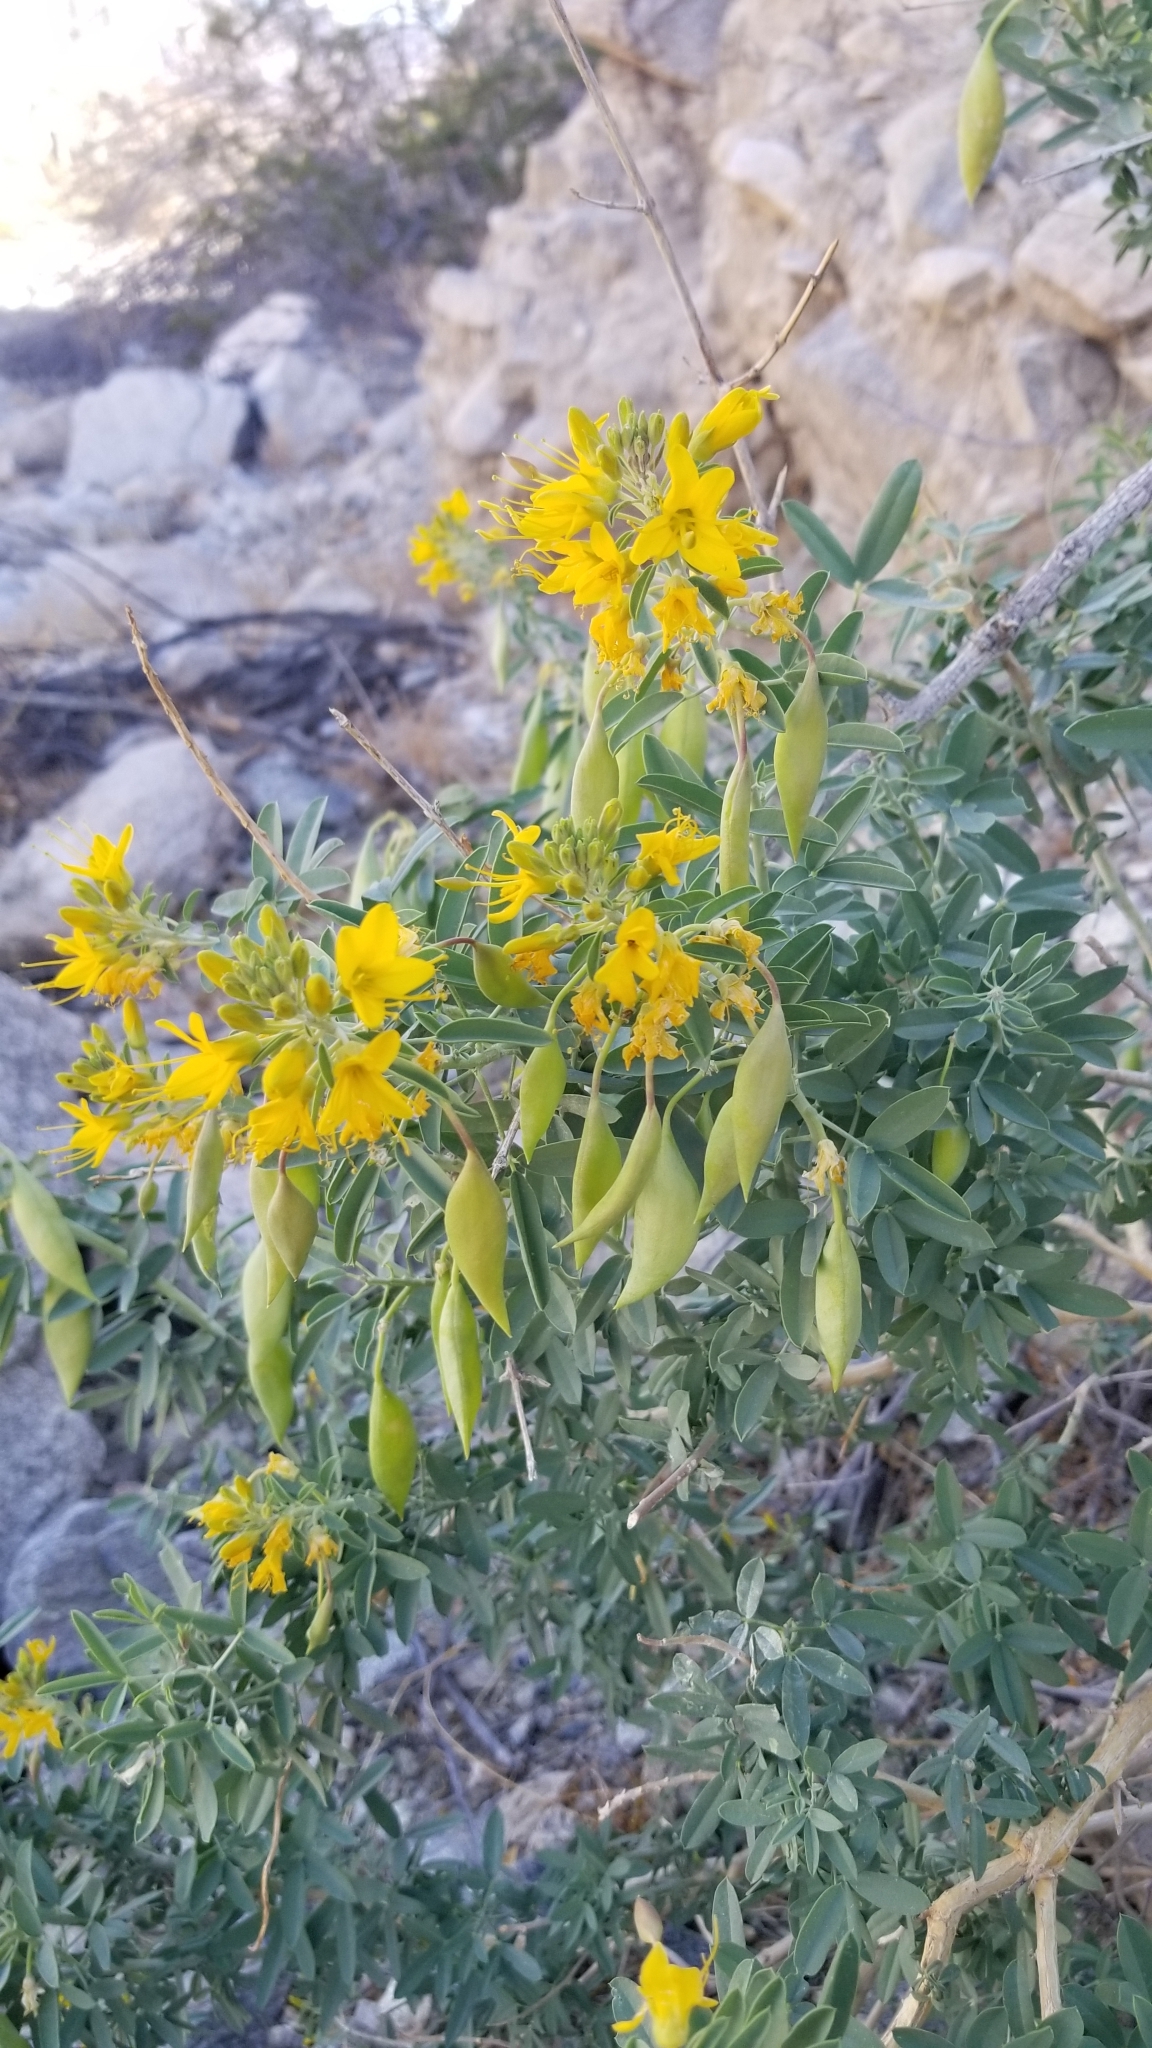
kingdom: Plantae
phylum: Tracheophyta
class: Magnoliopsida
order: Brassicales
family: Cleomaceae
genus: Cleomella
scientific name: Cleomella arborea
